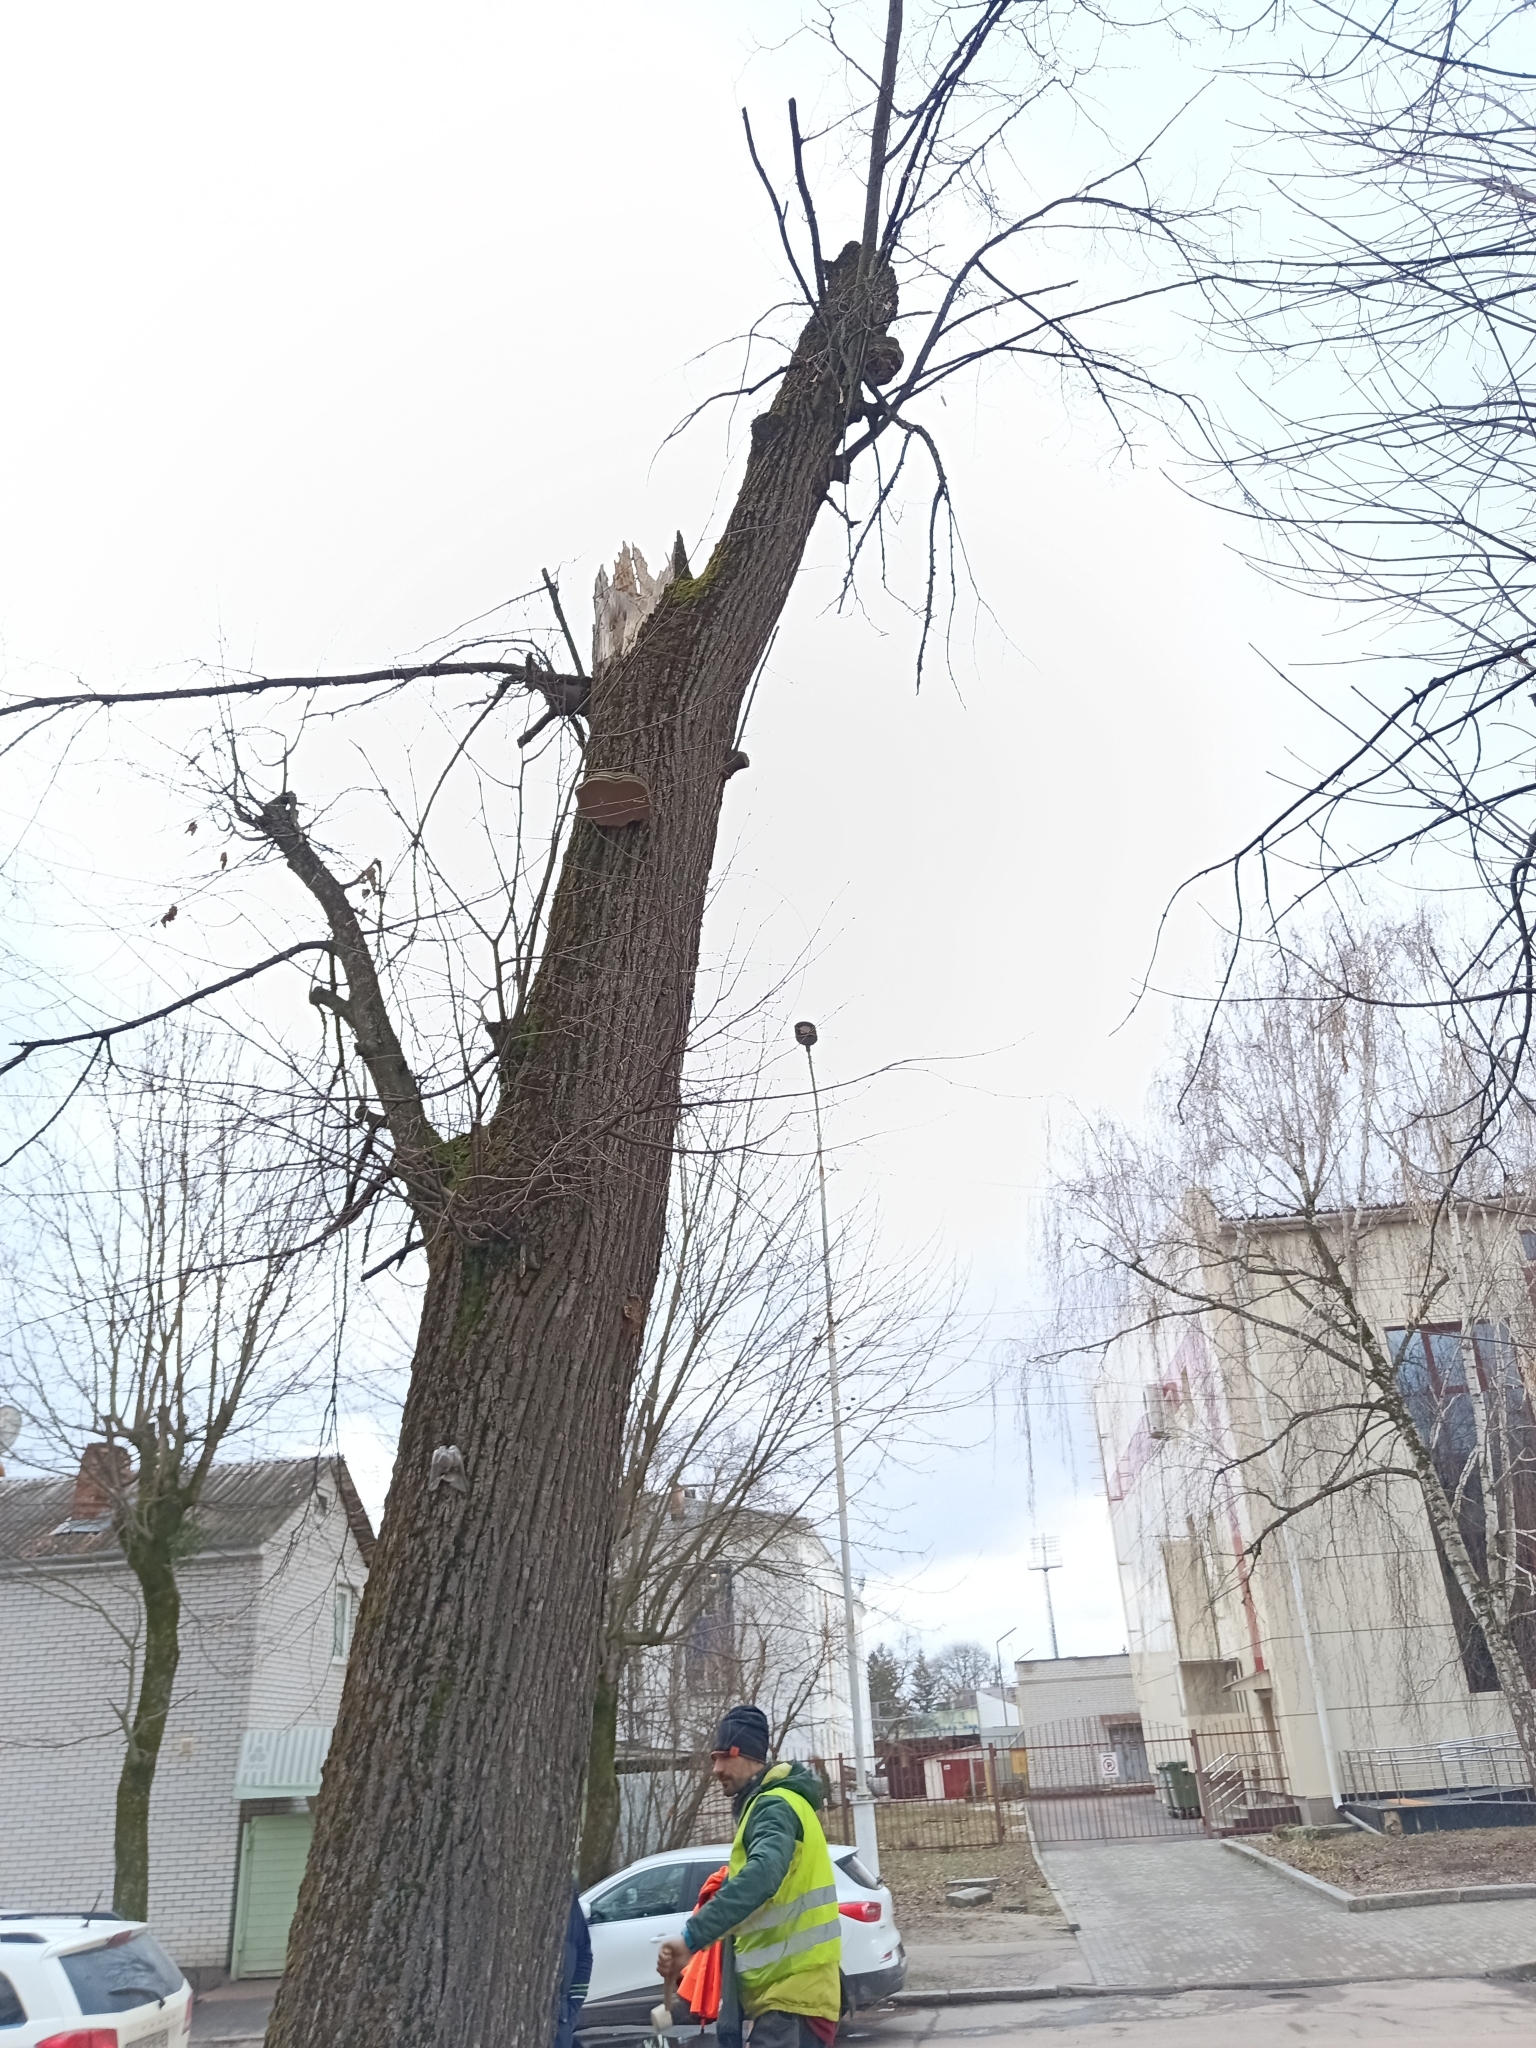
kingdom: Fungi
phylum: Basidiomycota
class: Agaricomycetes
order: Polyporales
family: Polyporaceae
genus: Fomes
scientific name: Fomes fomentarius
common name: Hoof fungus
